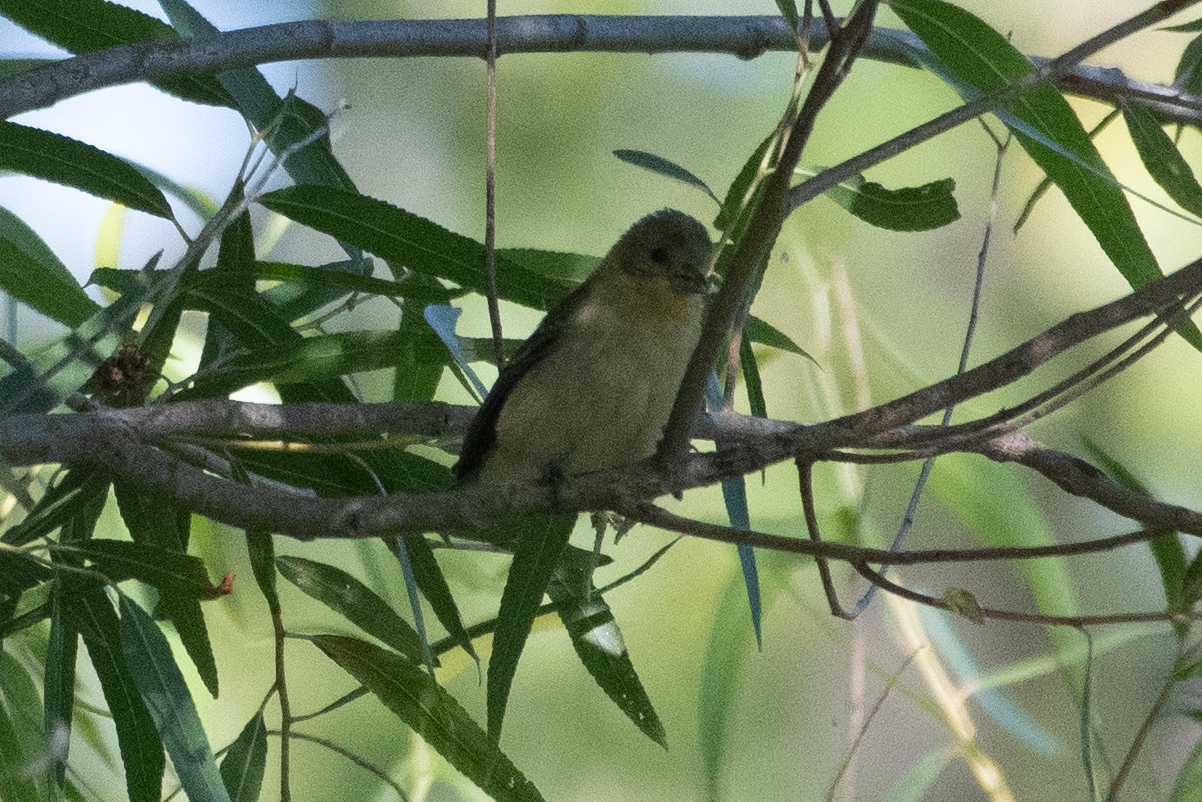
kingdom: Animalia
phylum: Chordata
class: Aves
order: Passeriformes
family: Fringillidae
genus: Spinus
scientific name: Spinus psaltria
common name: Lesser goldfinch
